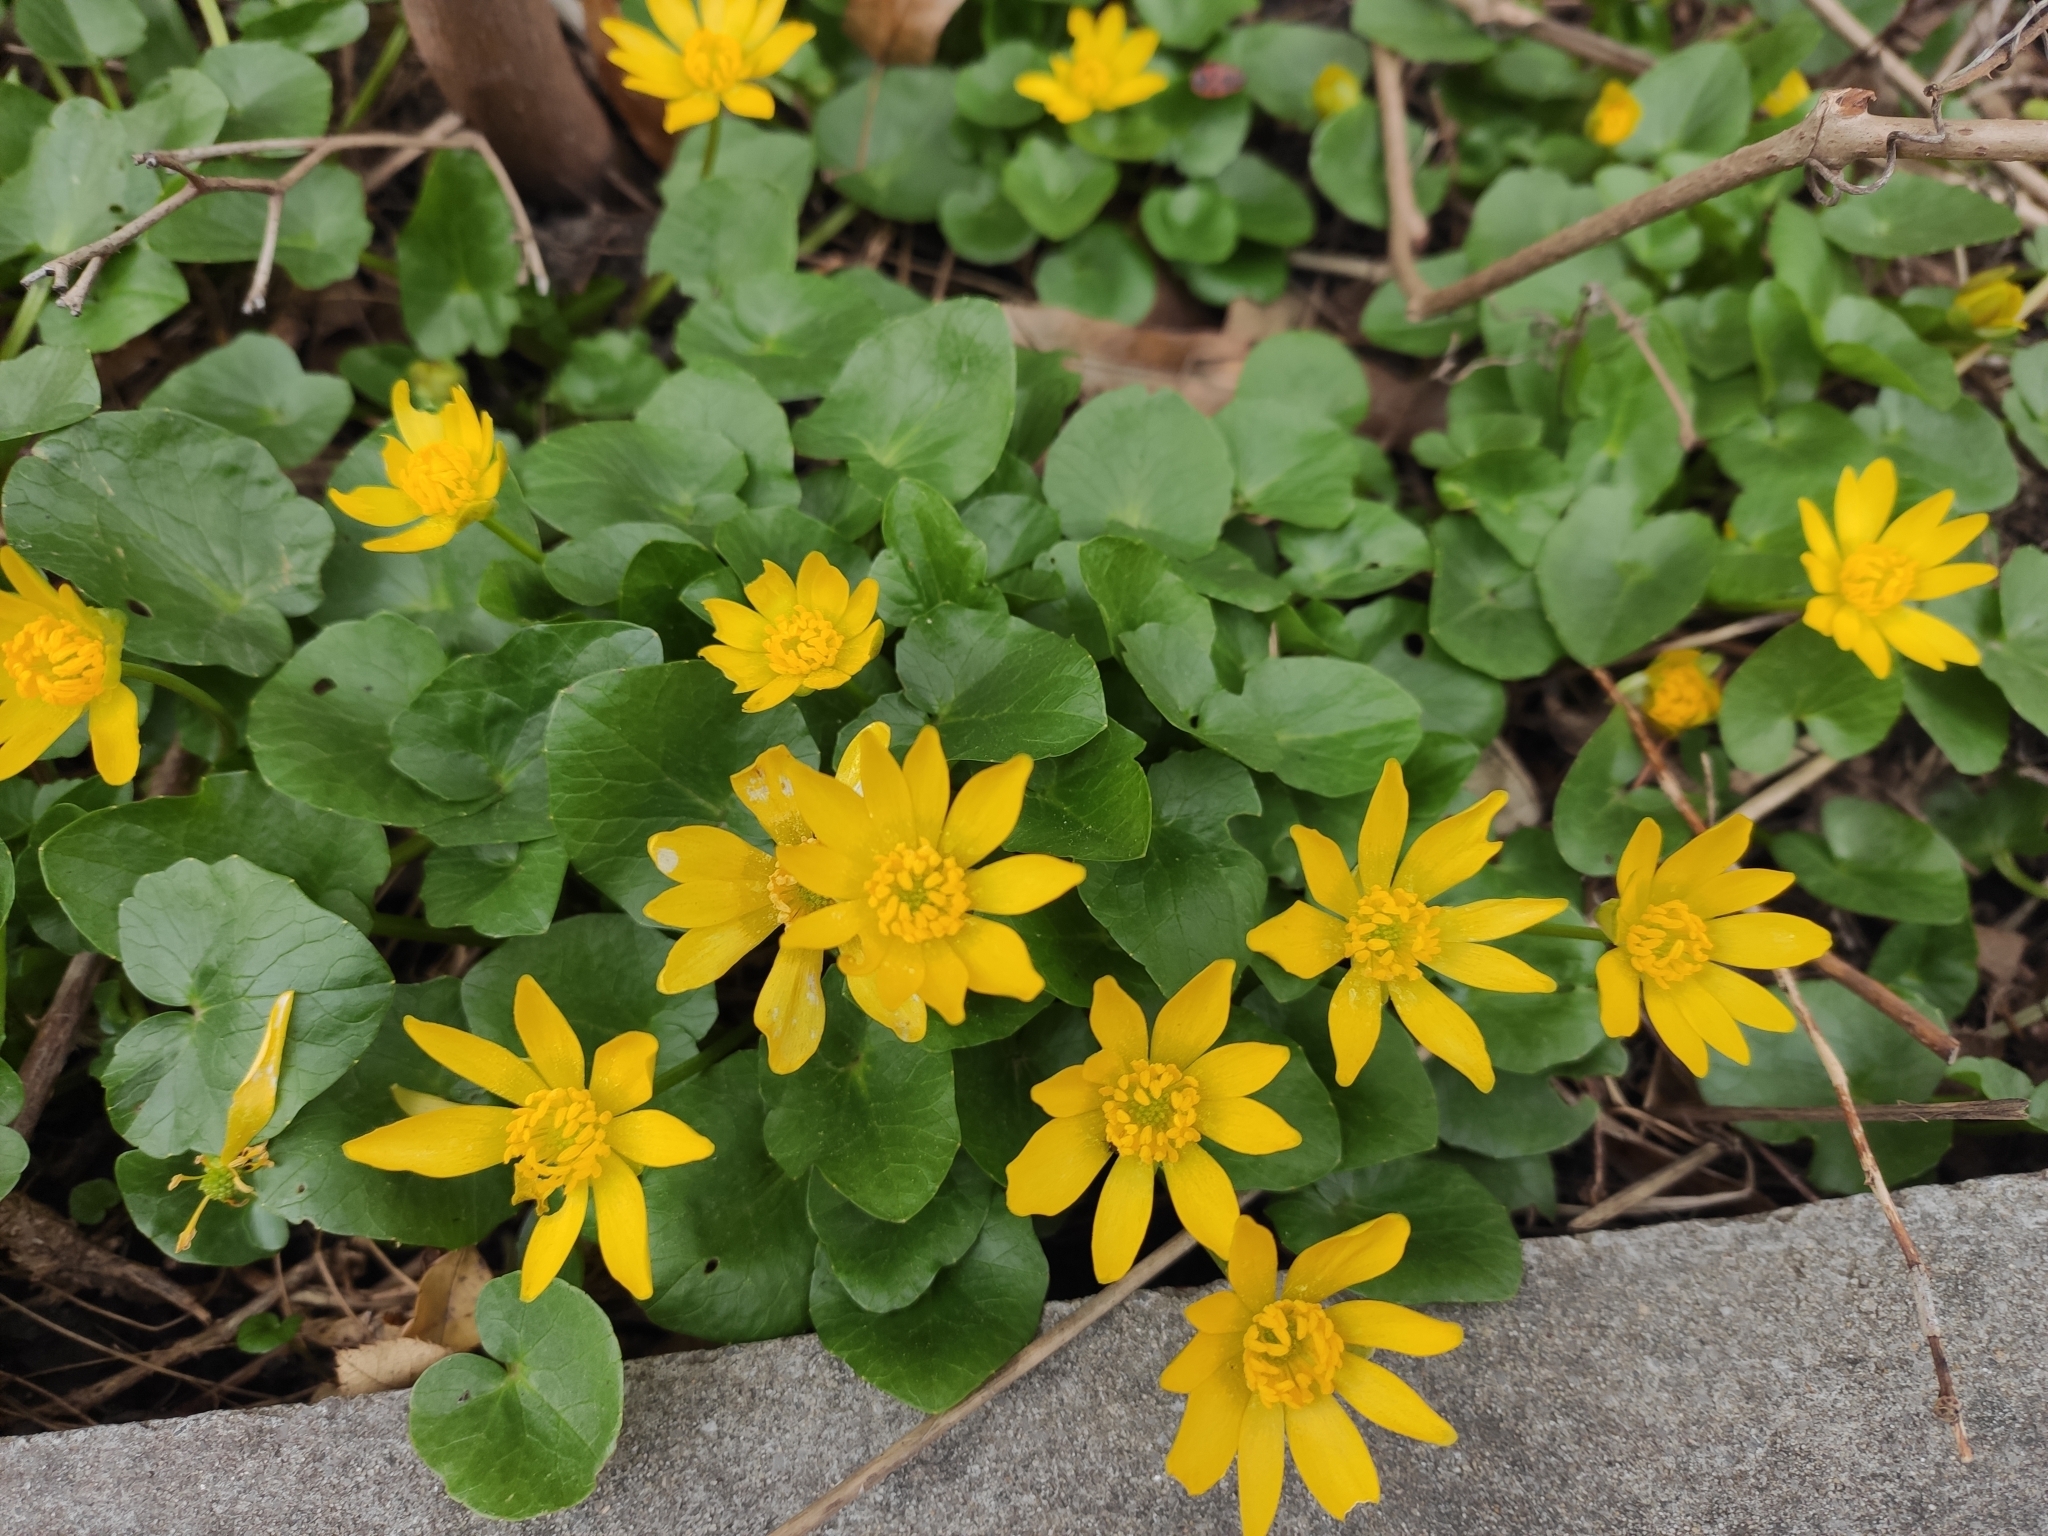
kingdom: Plantae
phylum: Tracheophyta
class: Magnoliopsida
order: Ranunculales
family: Ranunculaceae
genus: Ficaria
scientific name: Ficaria verna
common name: Lesser celandine
